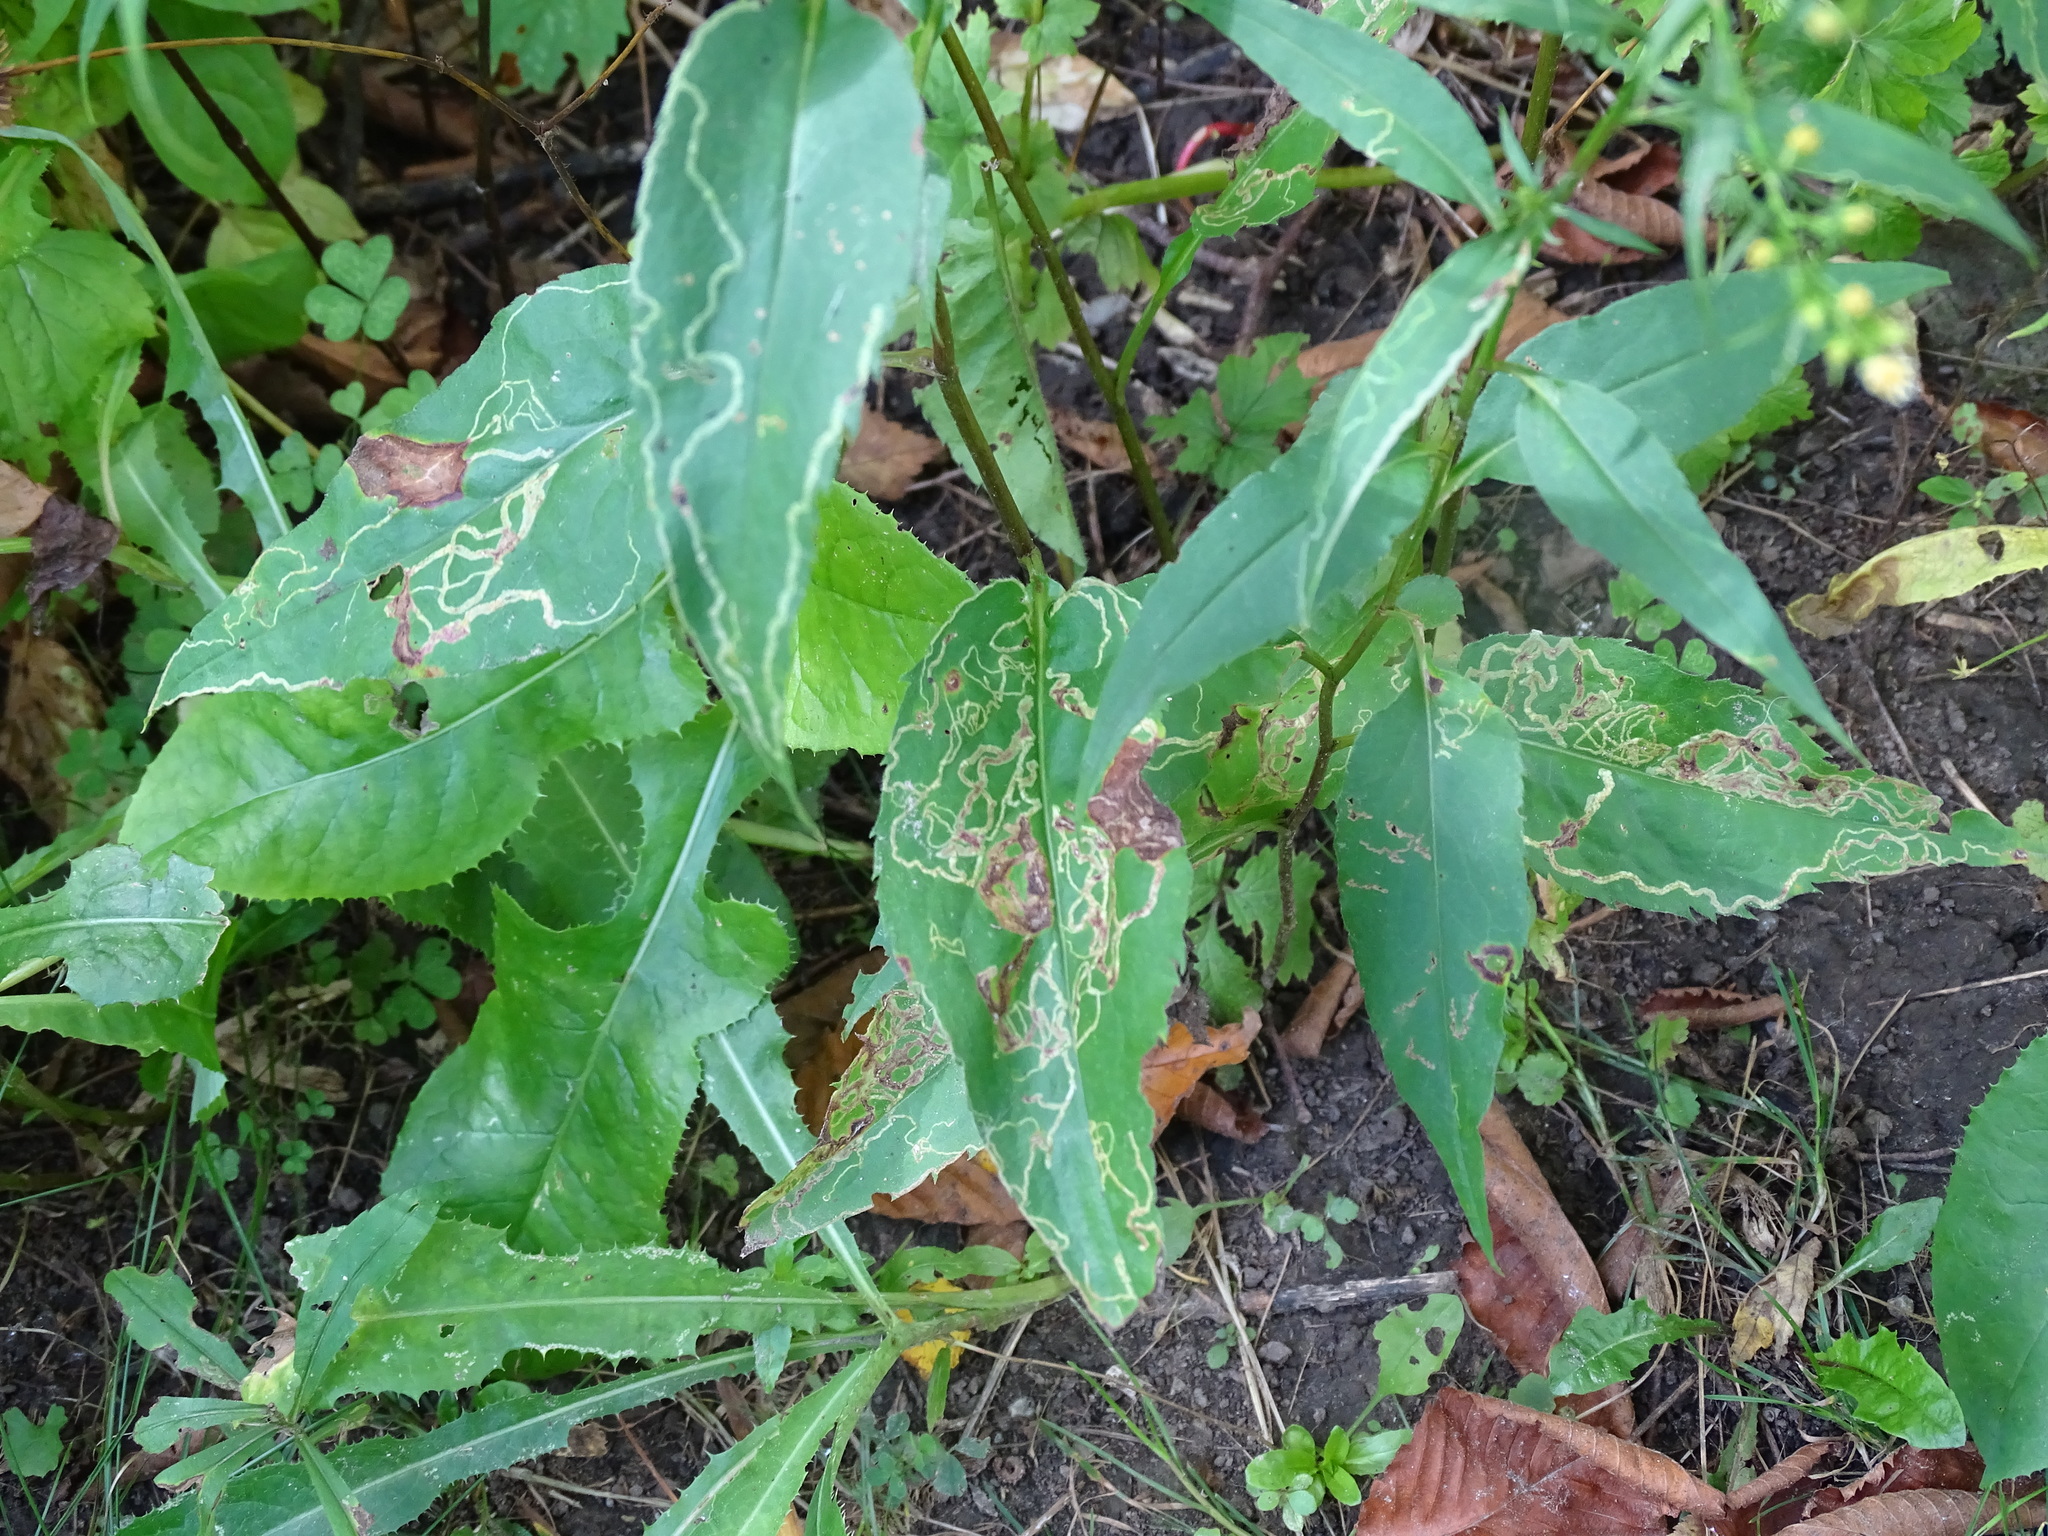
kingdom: Plantae
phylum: Tracheophyta
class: Magnoliopsida
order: Asterales
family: Asteraceae
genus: Symphyotrichum
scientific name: Symphyotrichum urophyllum
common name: Arrow-leaved aster
